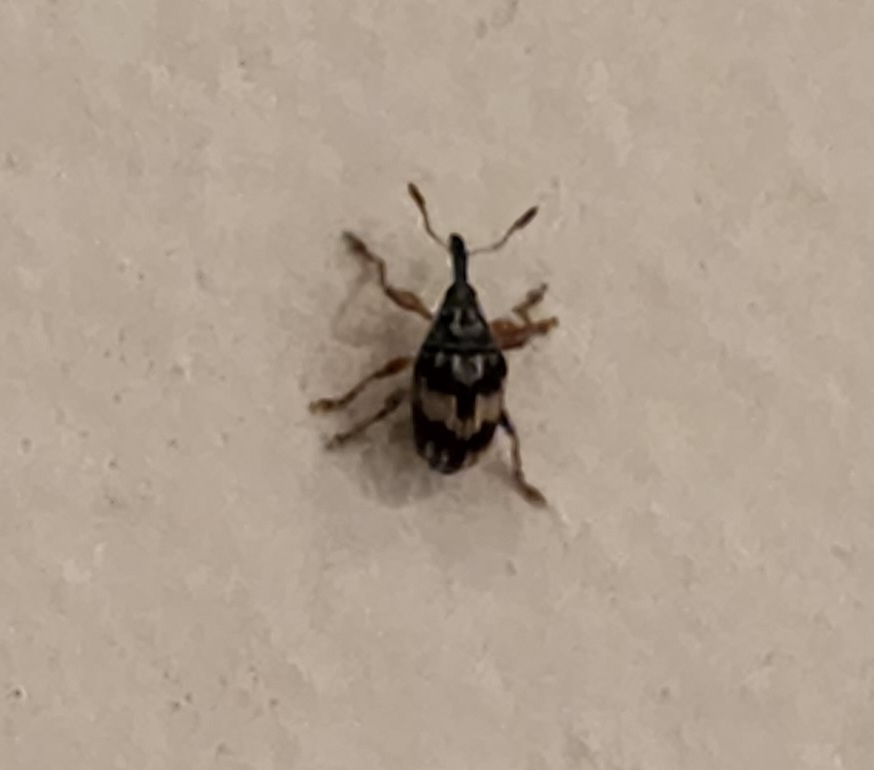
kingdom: Animalia
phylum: Arthropoda
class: Insecta
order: Coleoptera
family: Brentidae
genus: Nanophyes
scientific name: Nanophyes marmoratus
